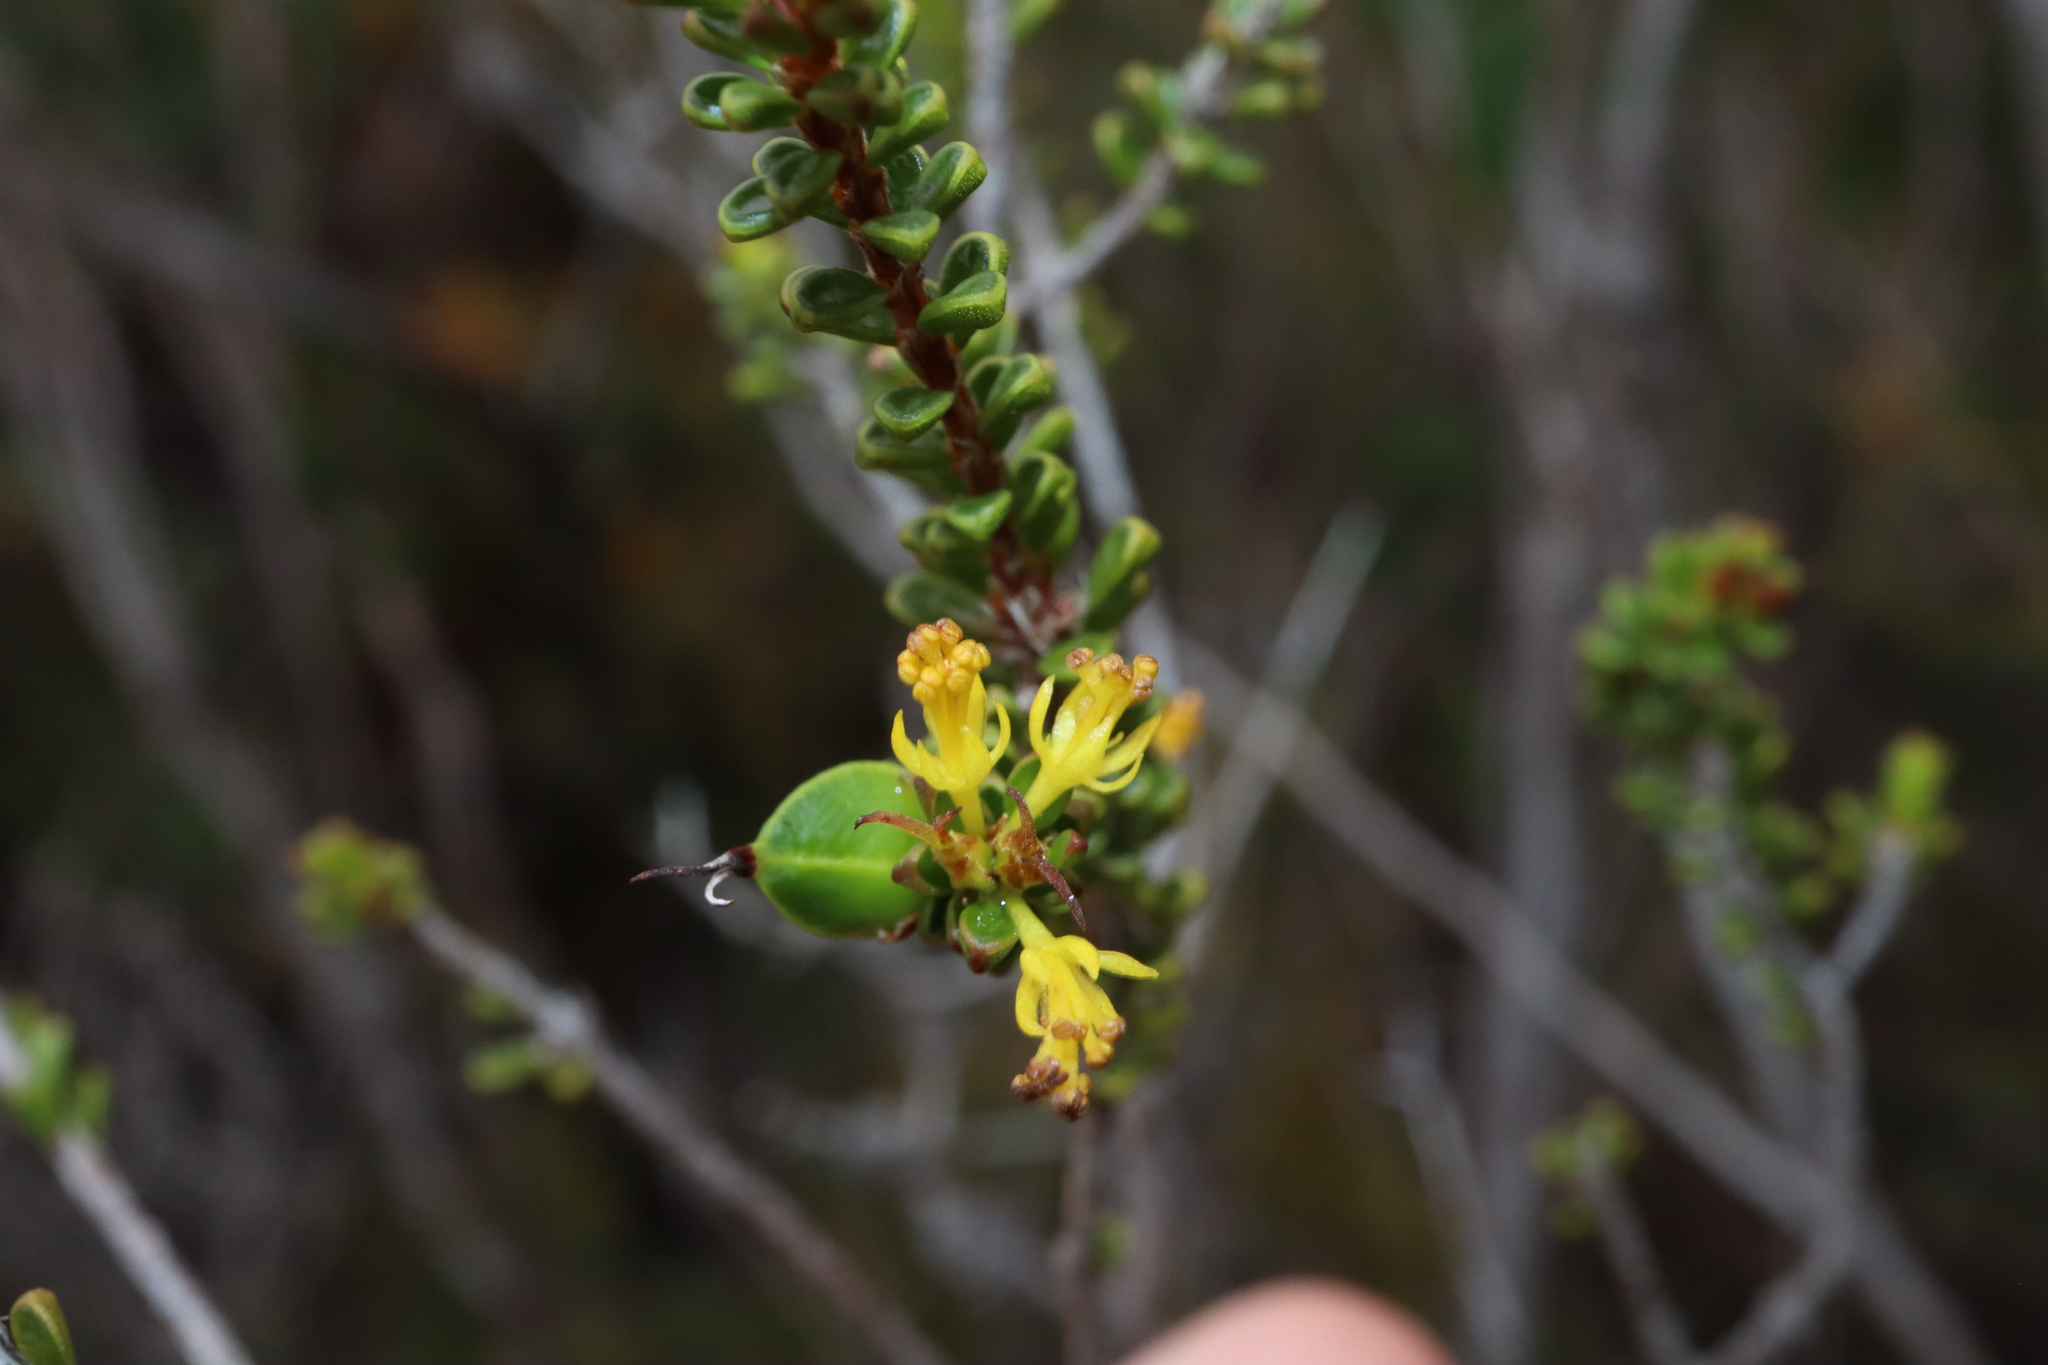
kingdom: Plantae
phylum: Tracheophyta
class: Magnoliopsida
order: Malpighiales
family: Picrodendraceae
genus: Stachystemon
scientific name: Stachystemon polyandrus
